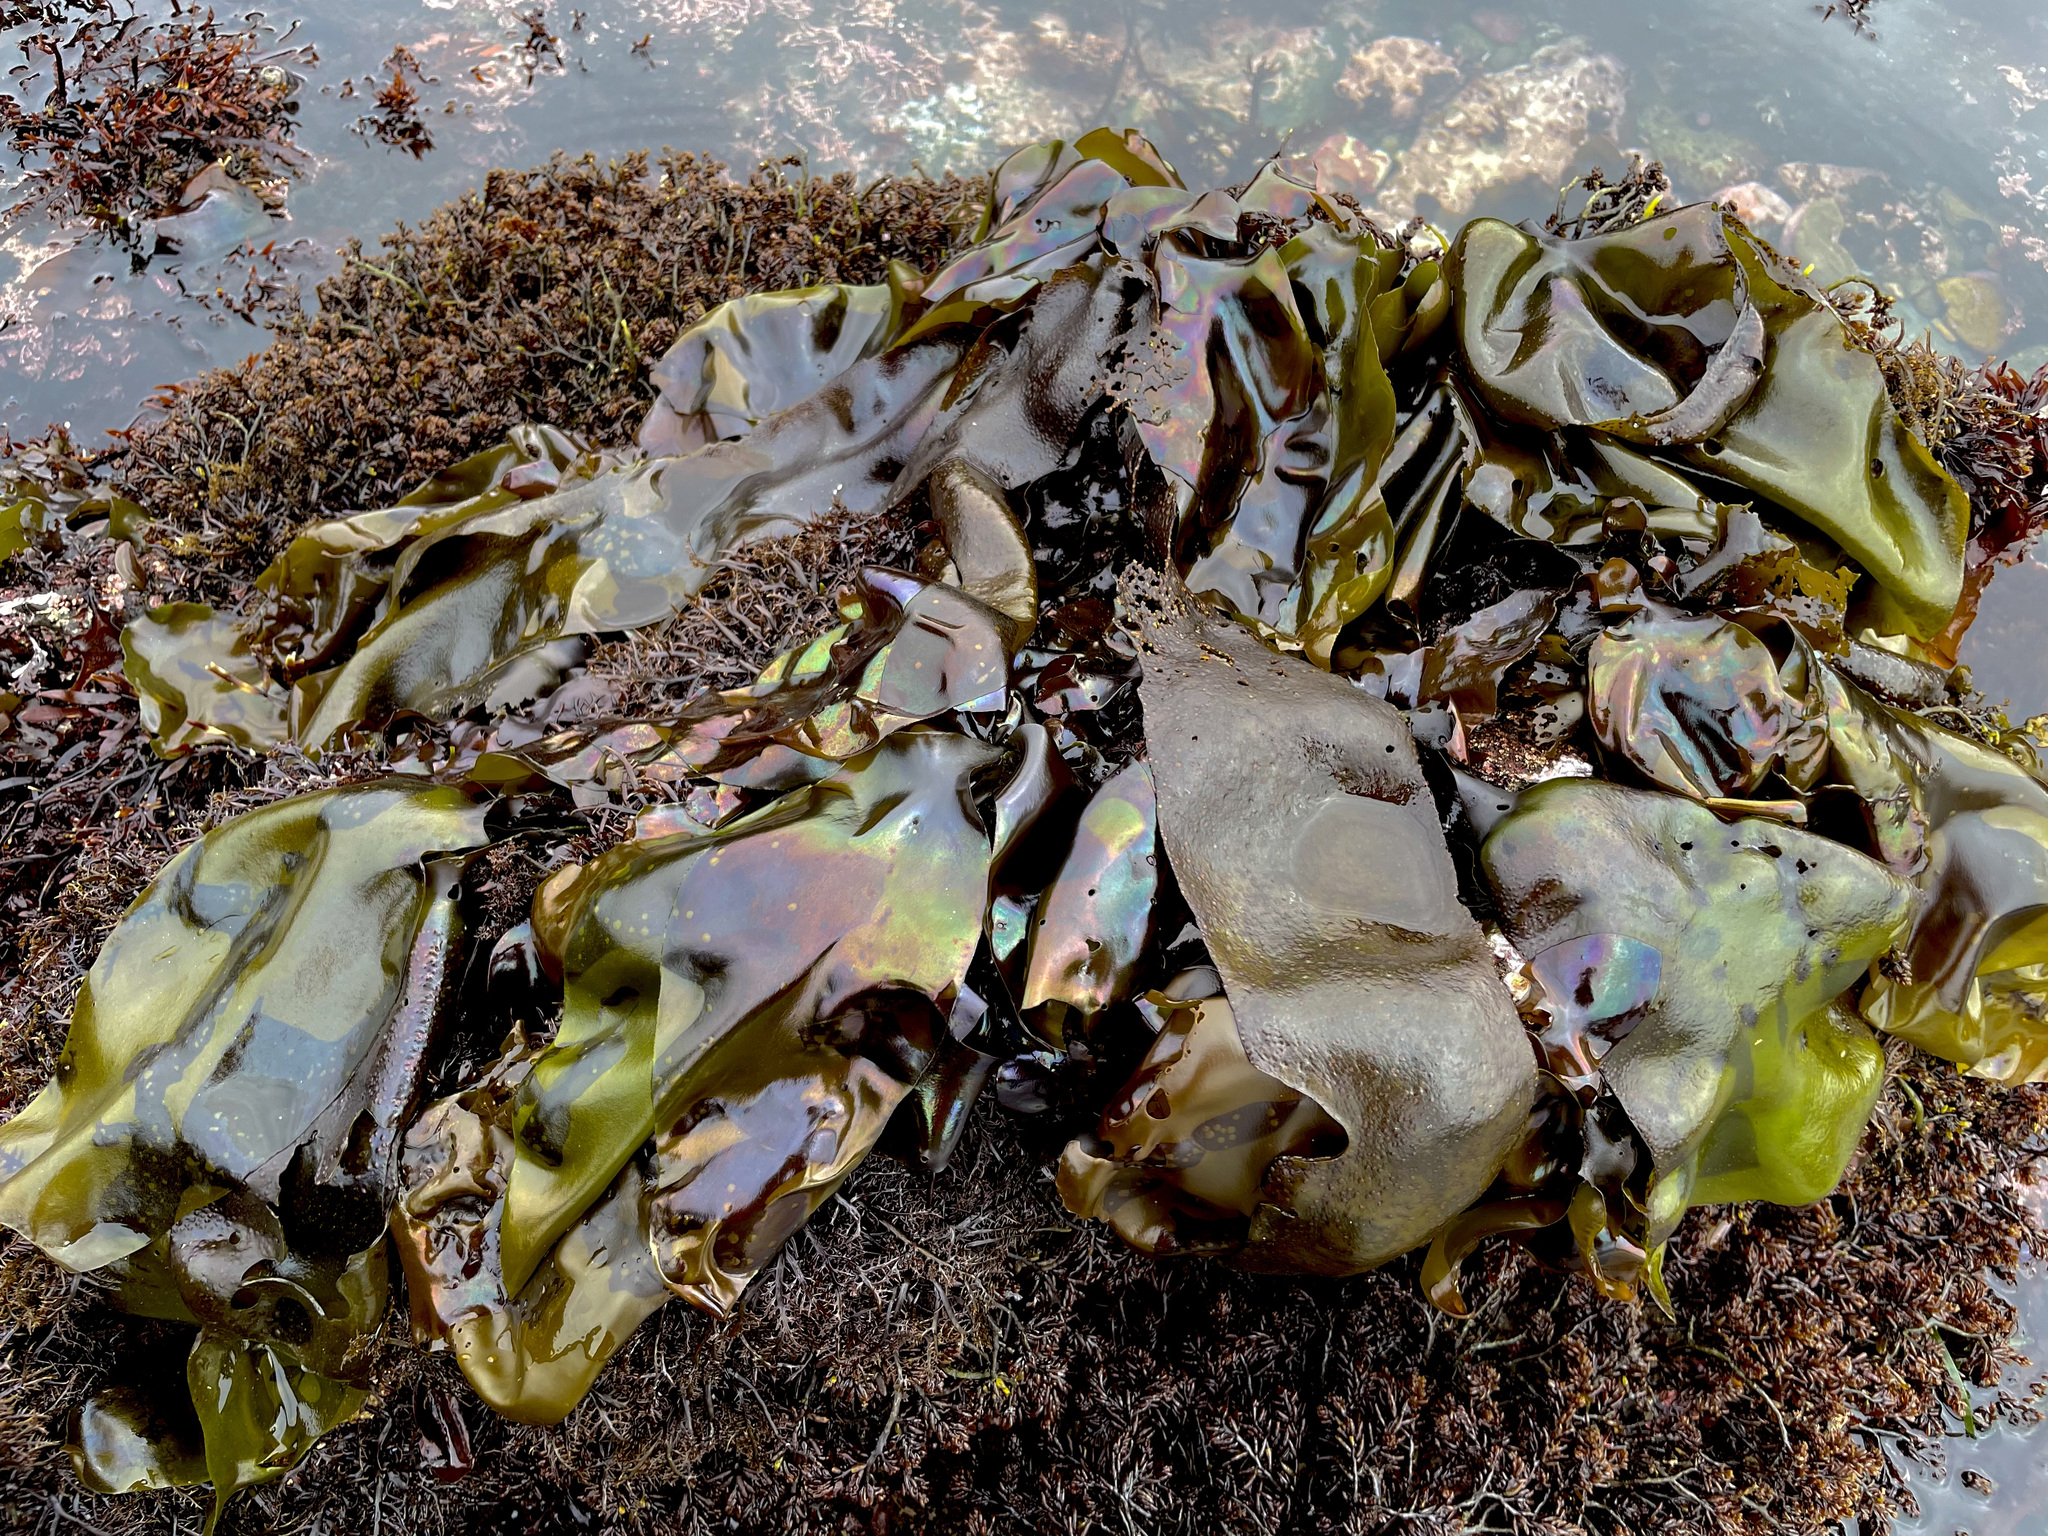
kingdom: Plantae
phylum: Rhodophyta
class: Florideophyceae
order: Gigartinales
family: Gigartinaceae
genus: Mazzaella
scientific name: Mazzaella flaccida
